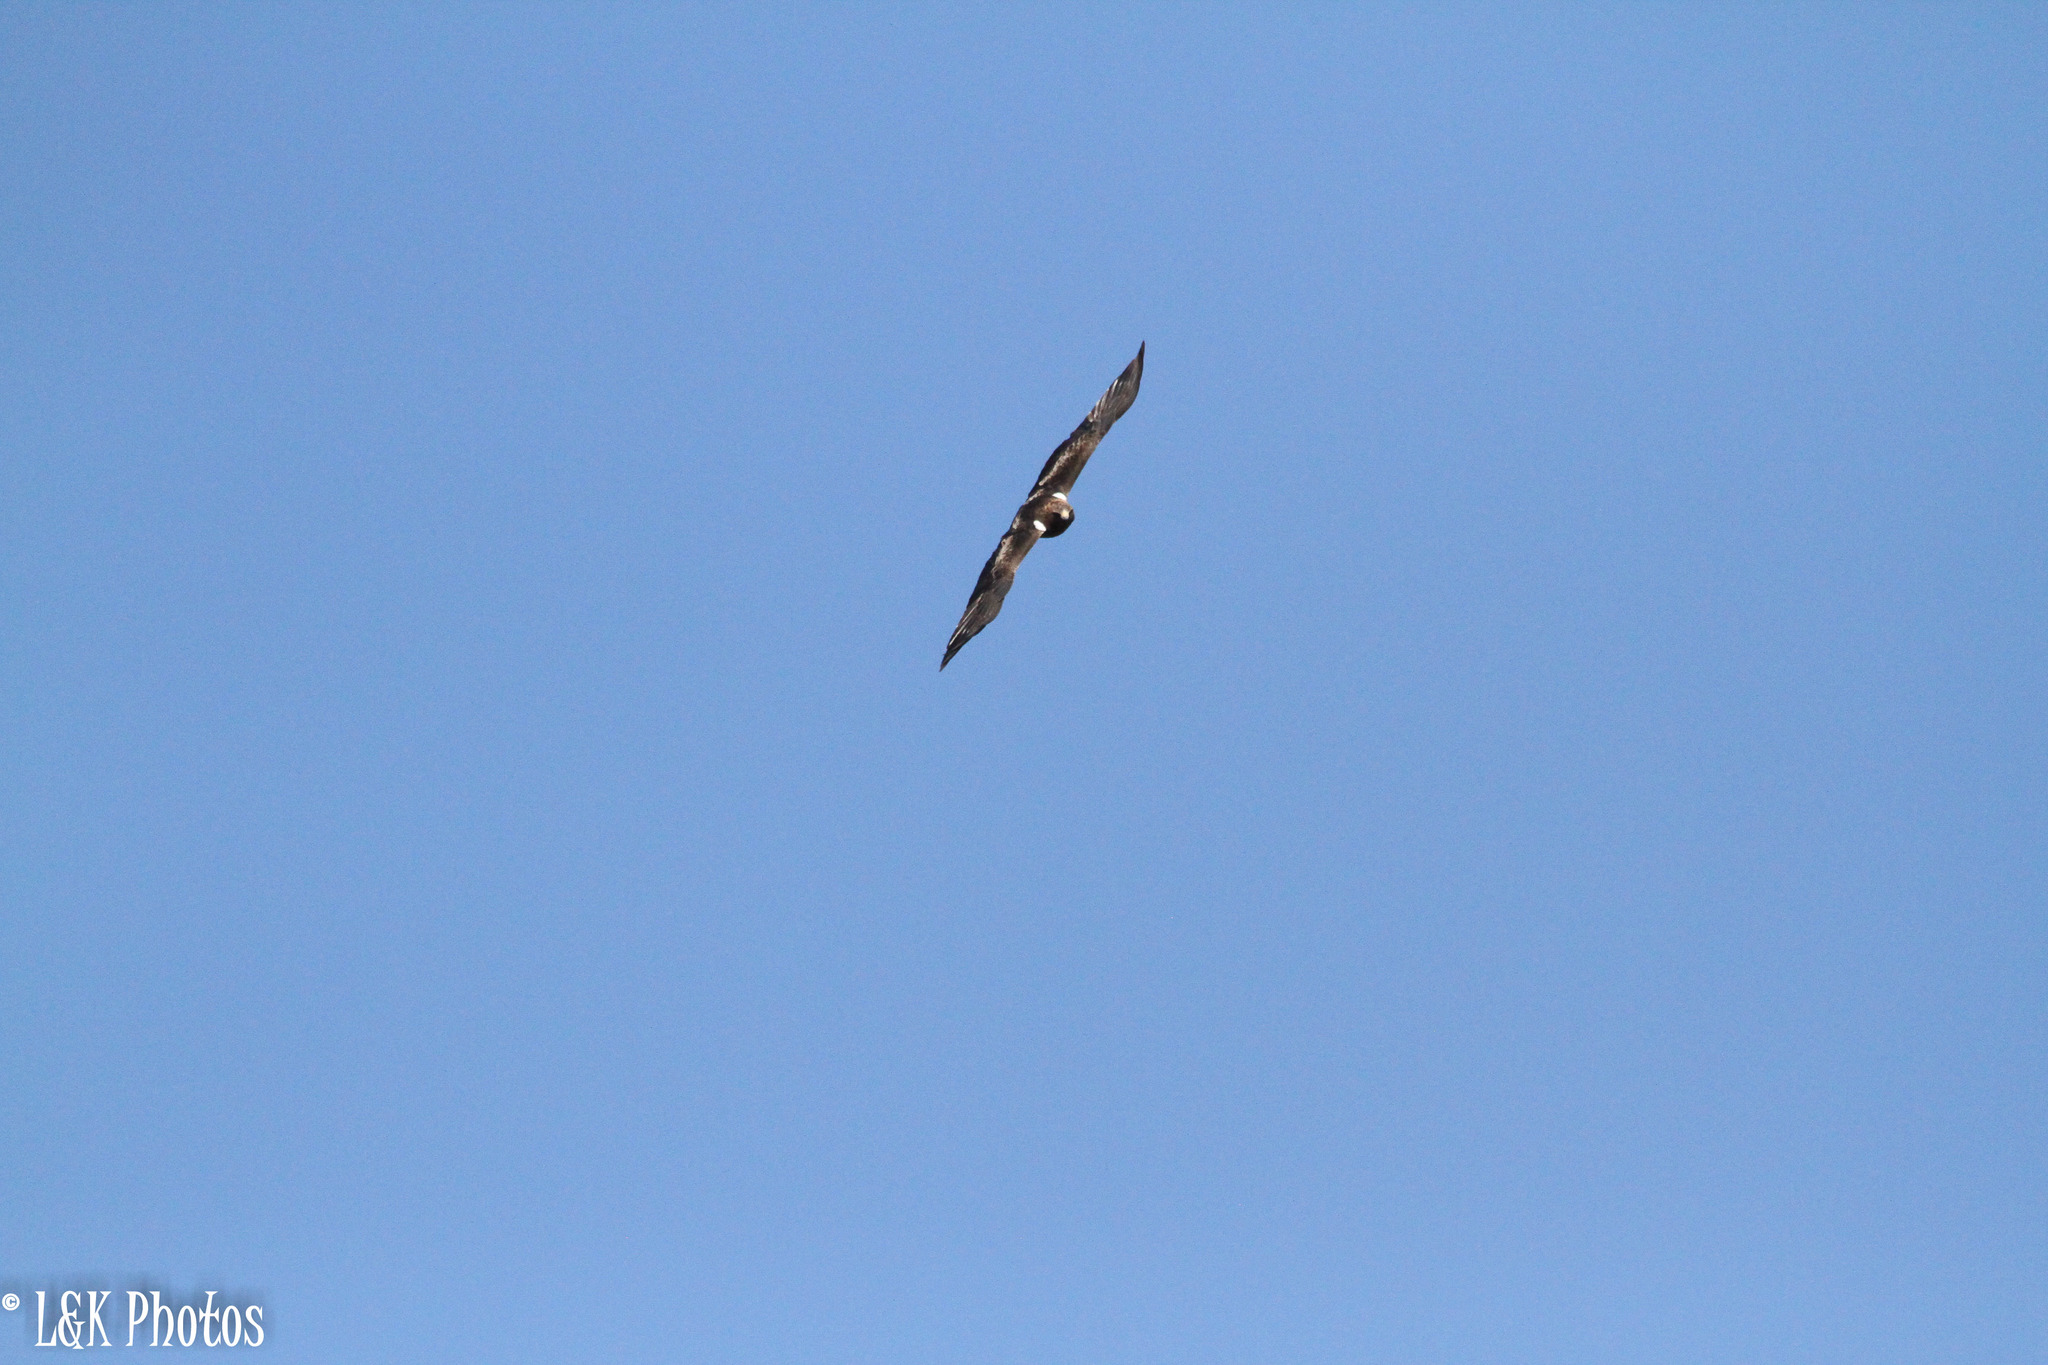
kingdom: Animalia
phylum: Chordata
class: Aves
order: Accipitriformes
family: Accipitridae
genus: Hieraaetus
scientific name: Hieraaetus pennatus
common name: Booted eagle
